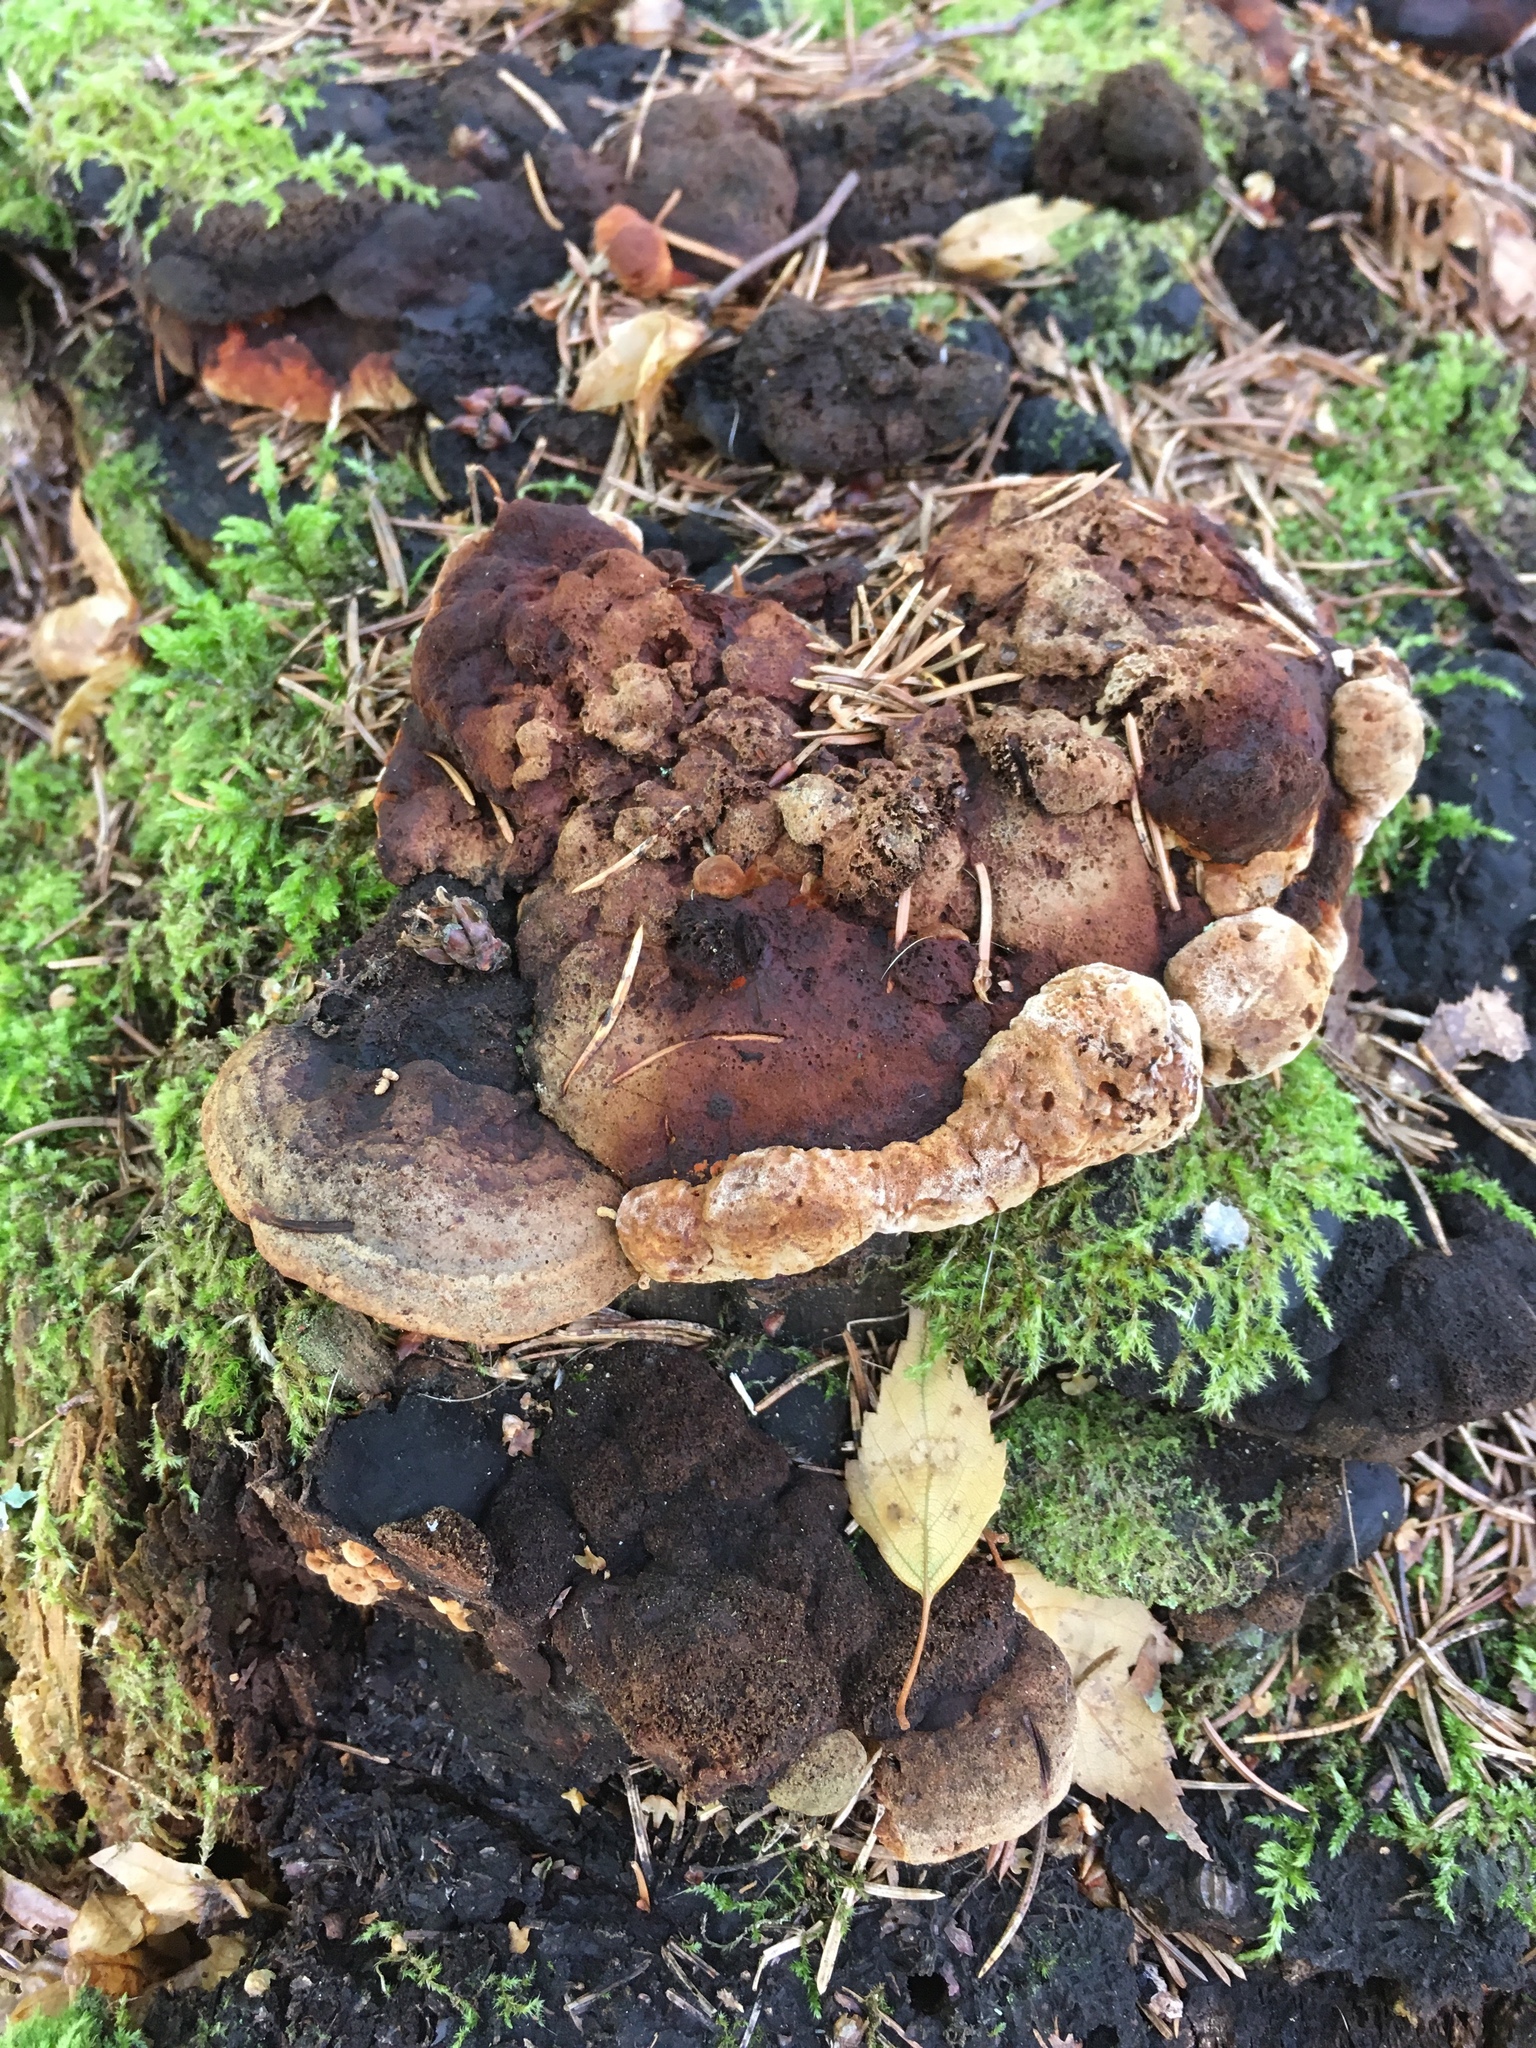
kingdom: Fungi
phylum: Basidiomycota
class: Agaricomycetes
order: Gloeophyllales
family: Gloeophyllaceae
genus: Gloeophyllum
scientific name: Gloeophyllum odoratum
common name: Anise mazegill
